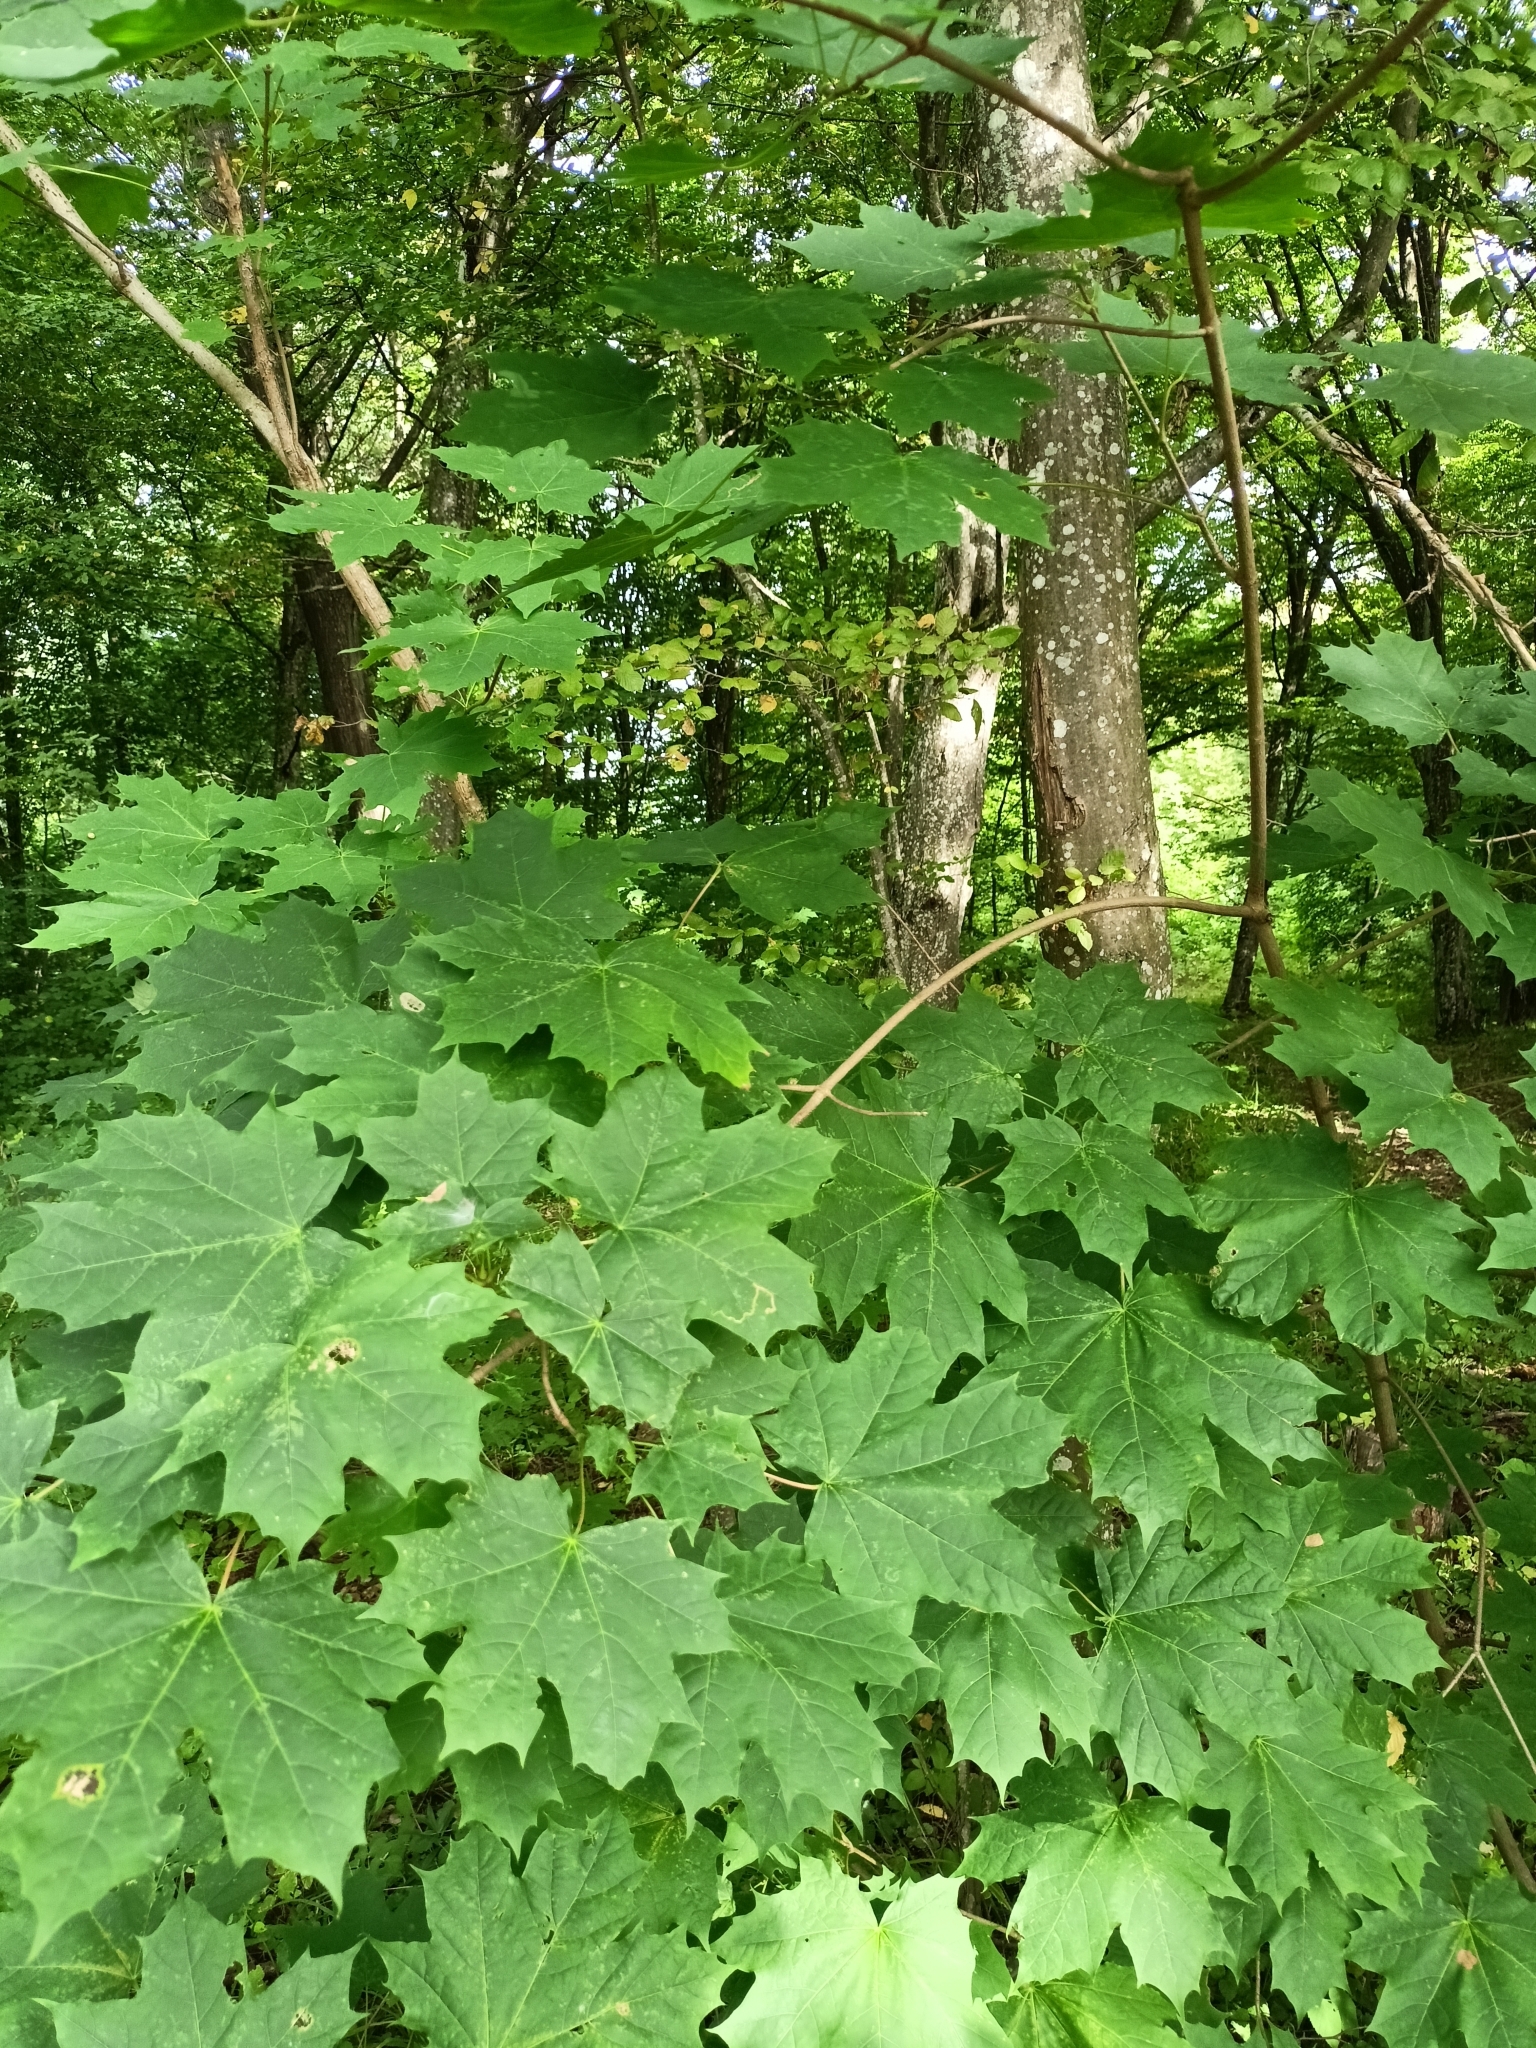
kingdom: Plantae
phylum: Tracheophyta
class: Magnoliopsida
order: Sapindales
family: Sapindaceae
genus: Acer
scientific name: Acer platanoides
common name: Norway maple
